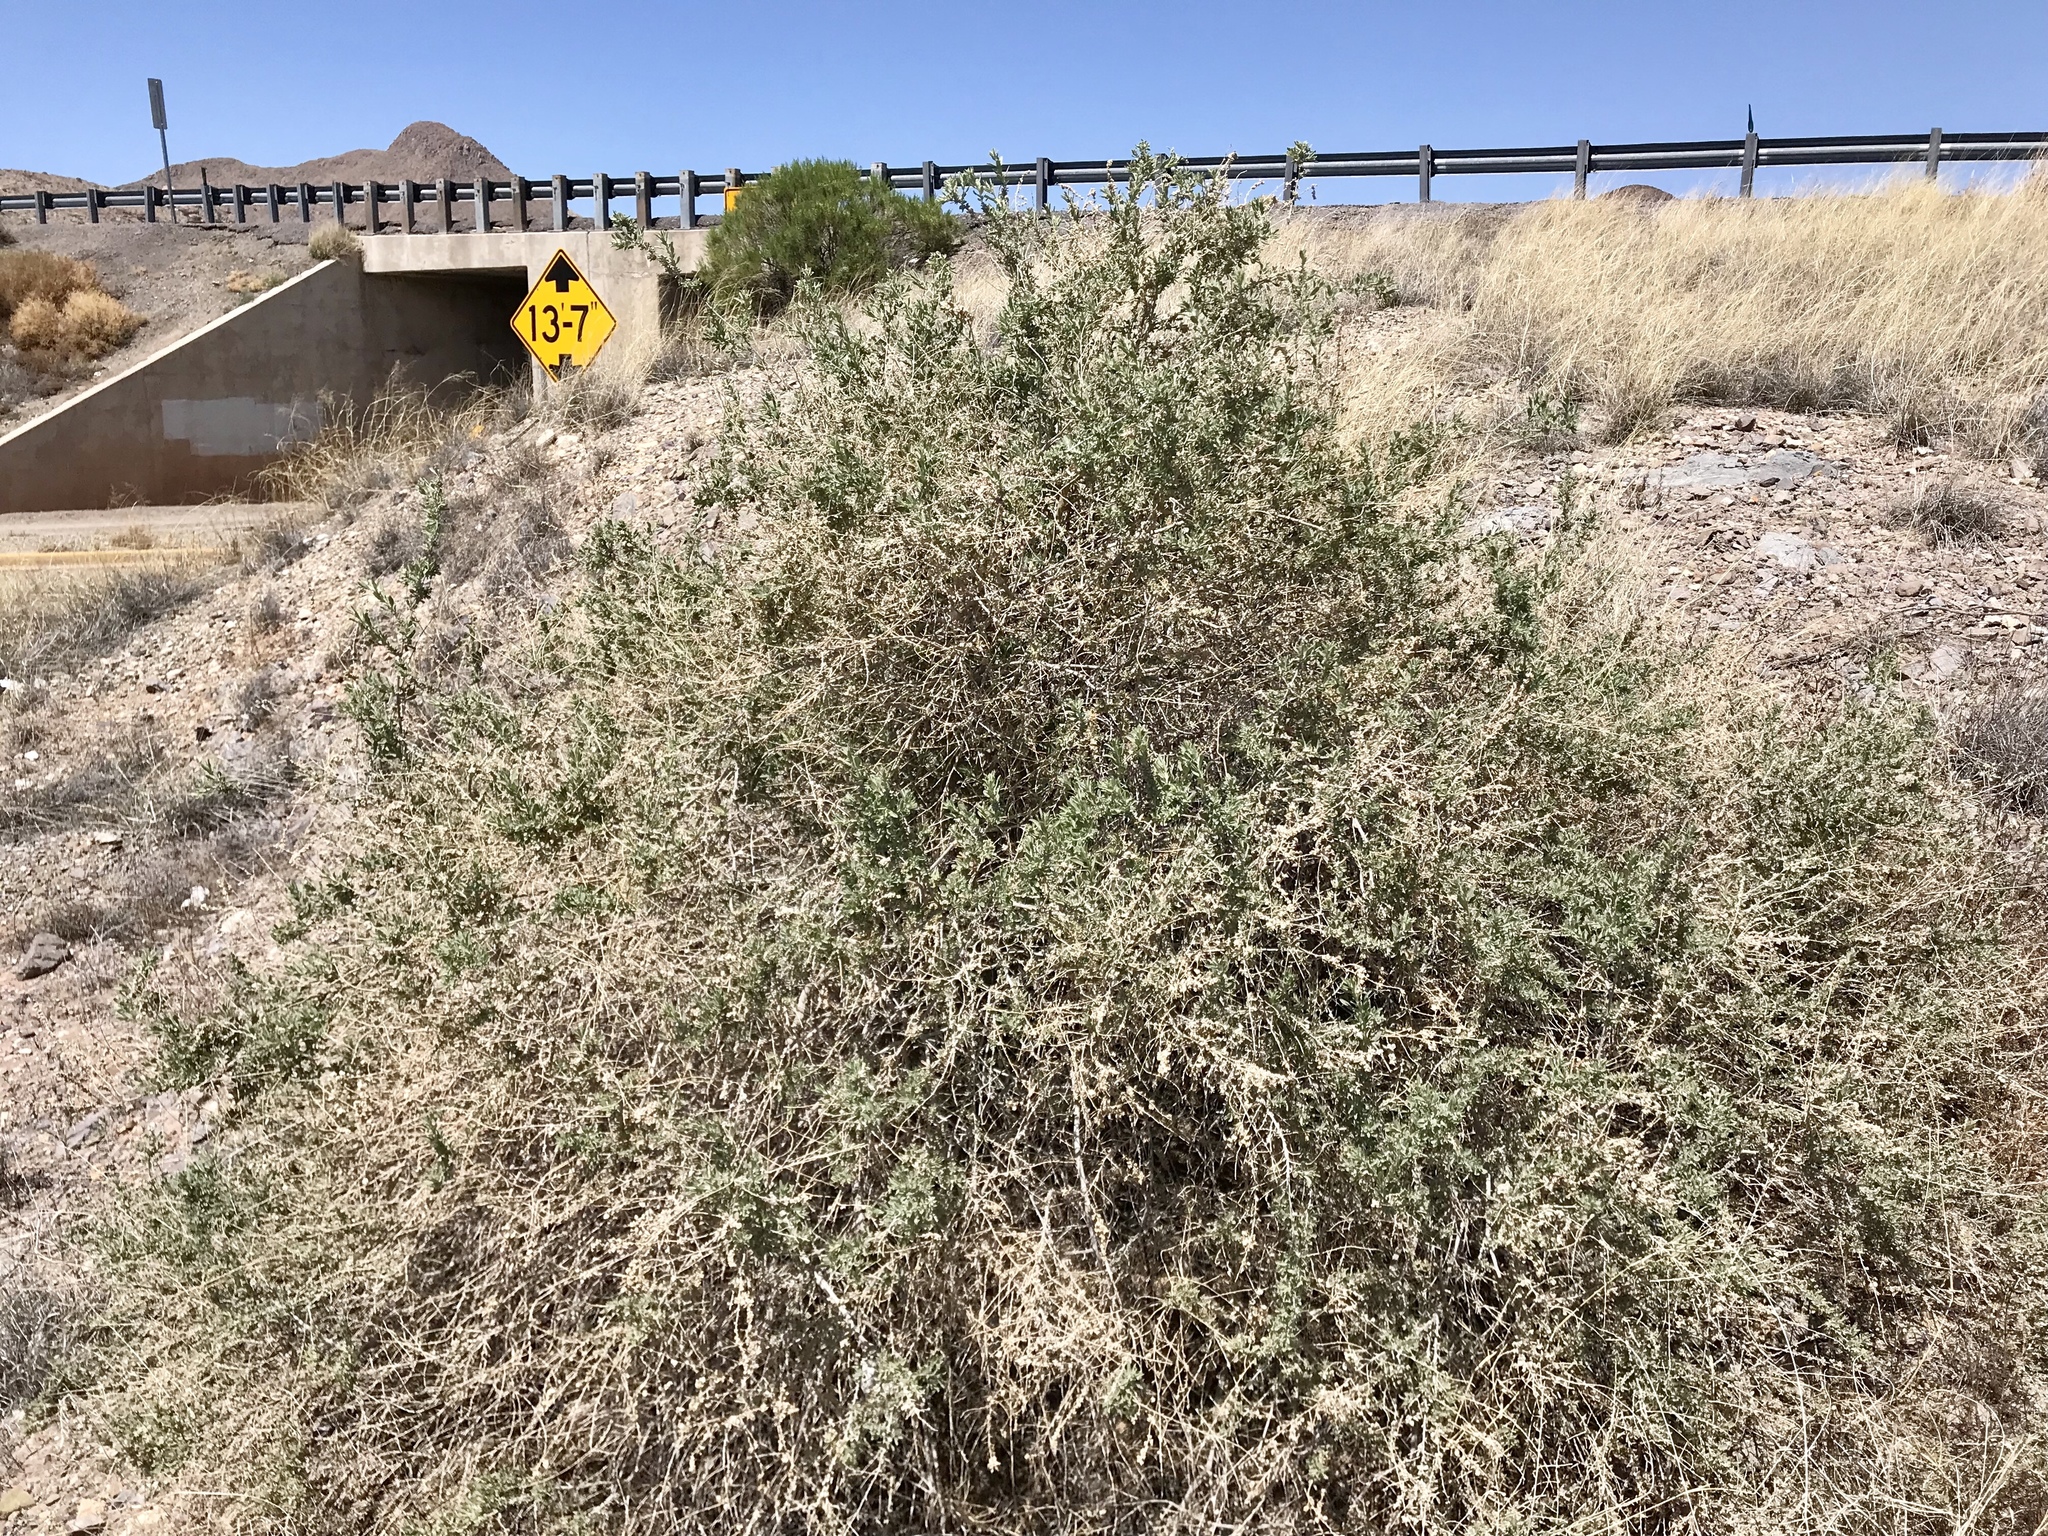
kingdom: Plantae
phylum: Tracheophyta
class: Magnoliopsida
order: Caryophyllales
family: Amaranthaceae
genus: Atriplex
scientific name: Atriplex canescens
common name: Four-wing saltbush
